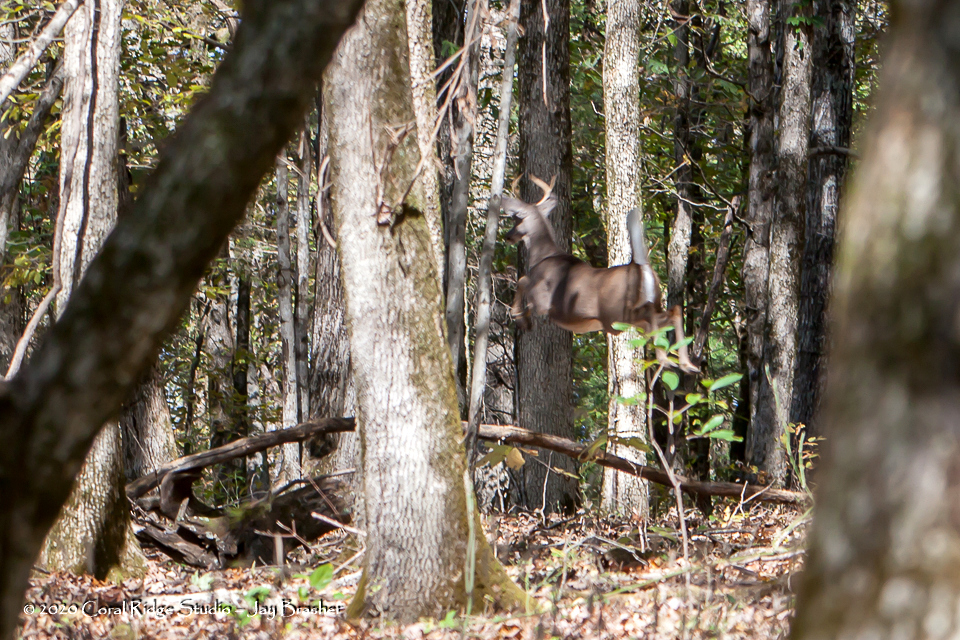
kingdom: Animalia
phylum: Chordata
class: Mammalia
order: Artiodactyla
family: Cervidae
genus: Odocoileus
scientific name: Odocoileus virginianus
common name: White-tailed deer
